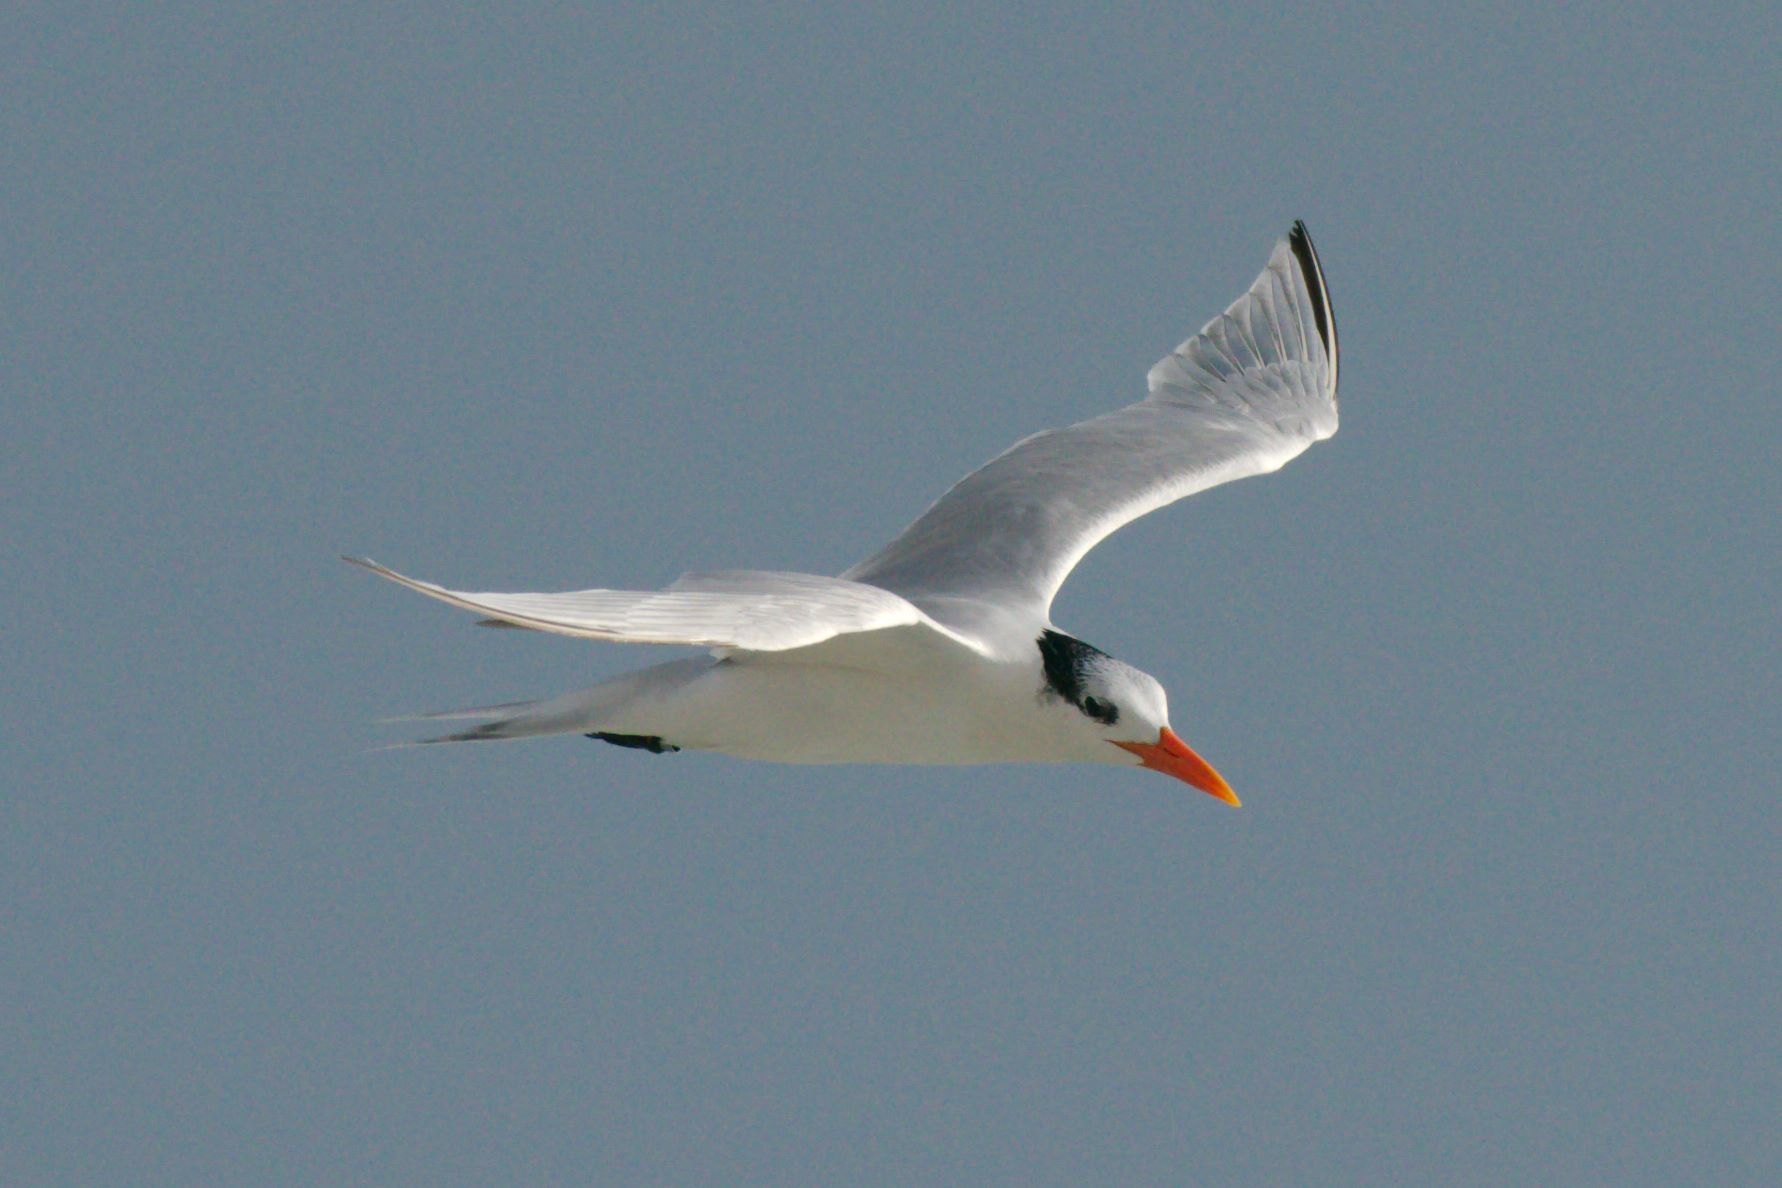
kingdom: Animalia
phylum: Chordata
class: Aves
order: Charadriiformes
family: Laridae
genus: Thalasseus
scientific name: Thalasseus maximus
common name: Royal tern
